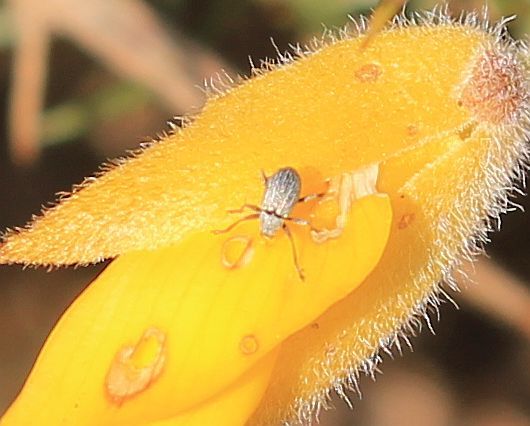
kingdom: Animalia
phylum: Arthropoda
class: Insecta
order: Coleoptera
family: Brentidae
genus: Exapion
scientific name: Exapion ulicis
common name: Gorse seed weevil
